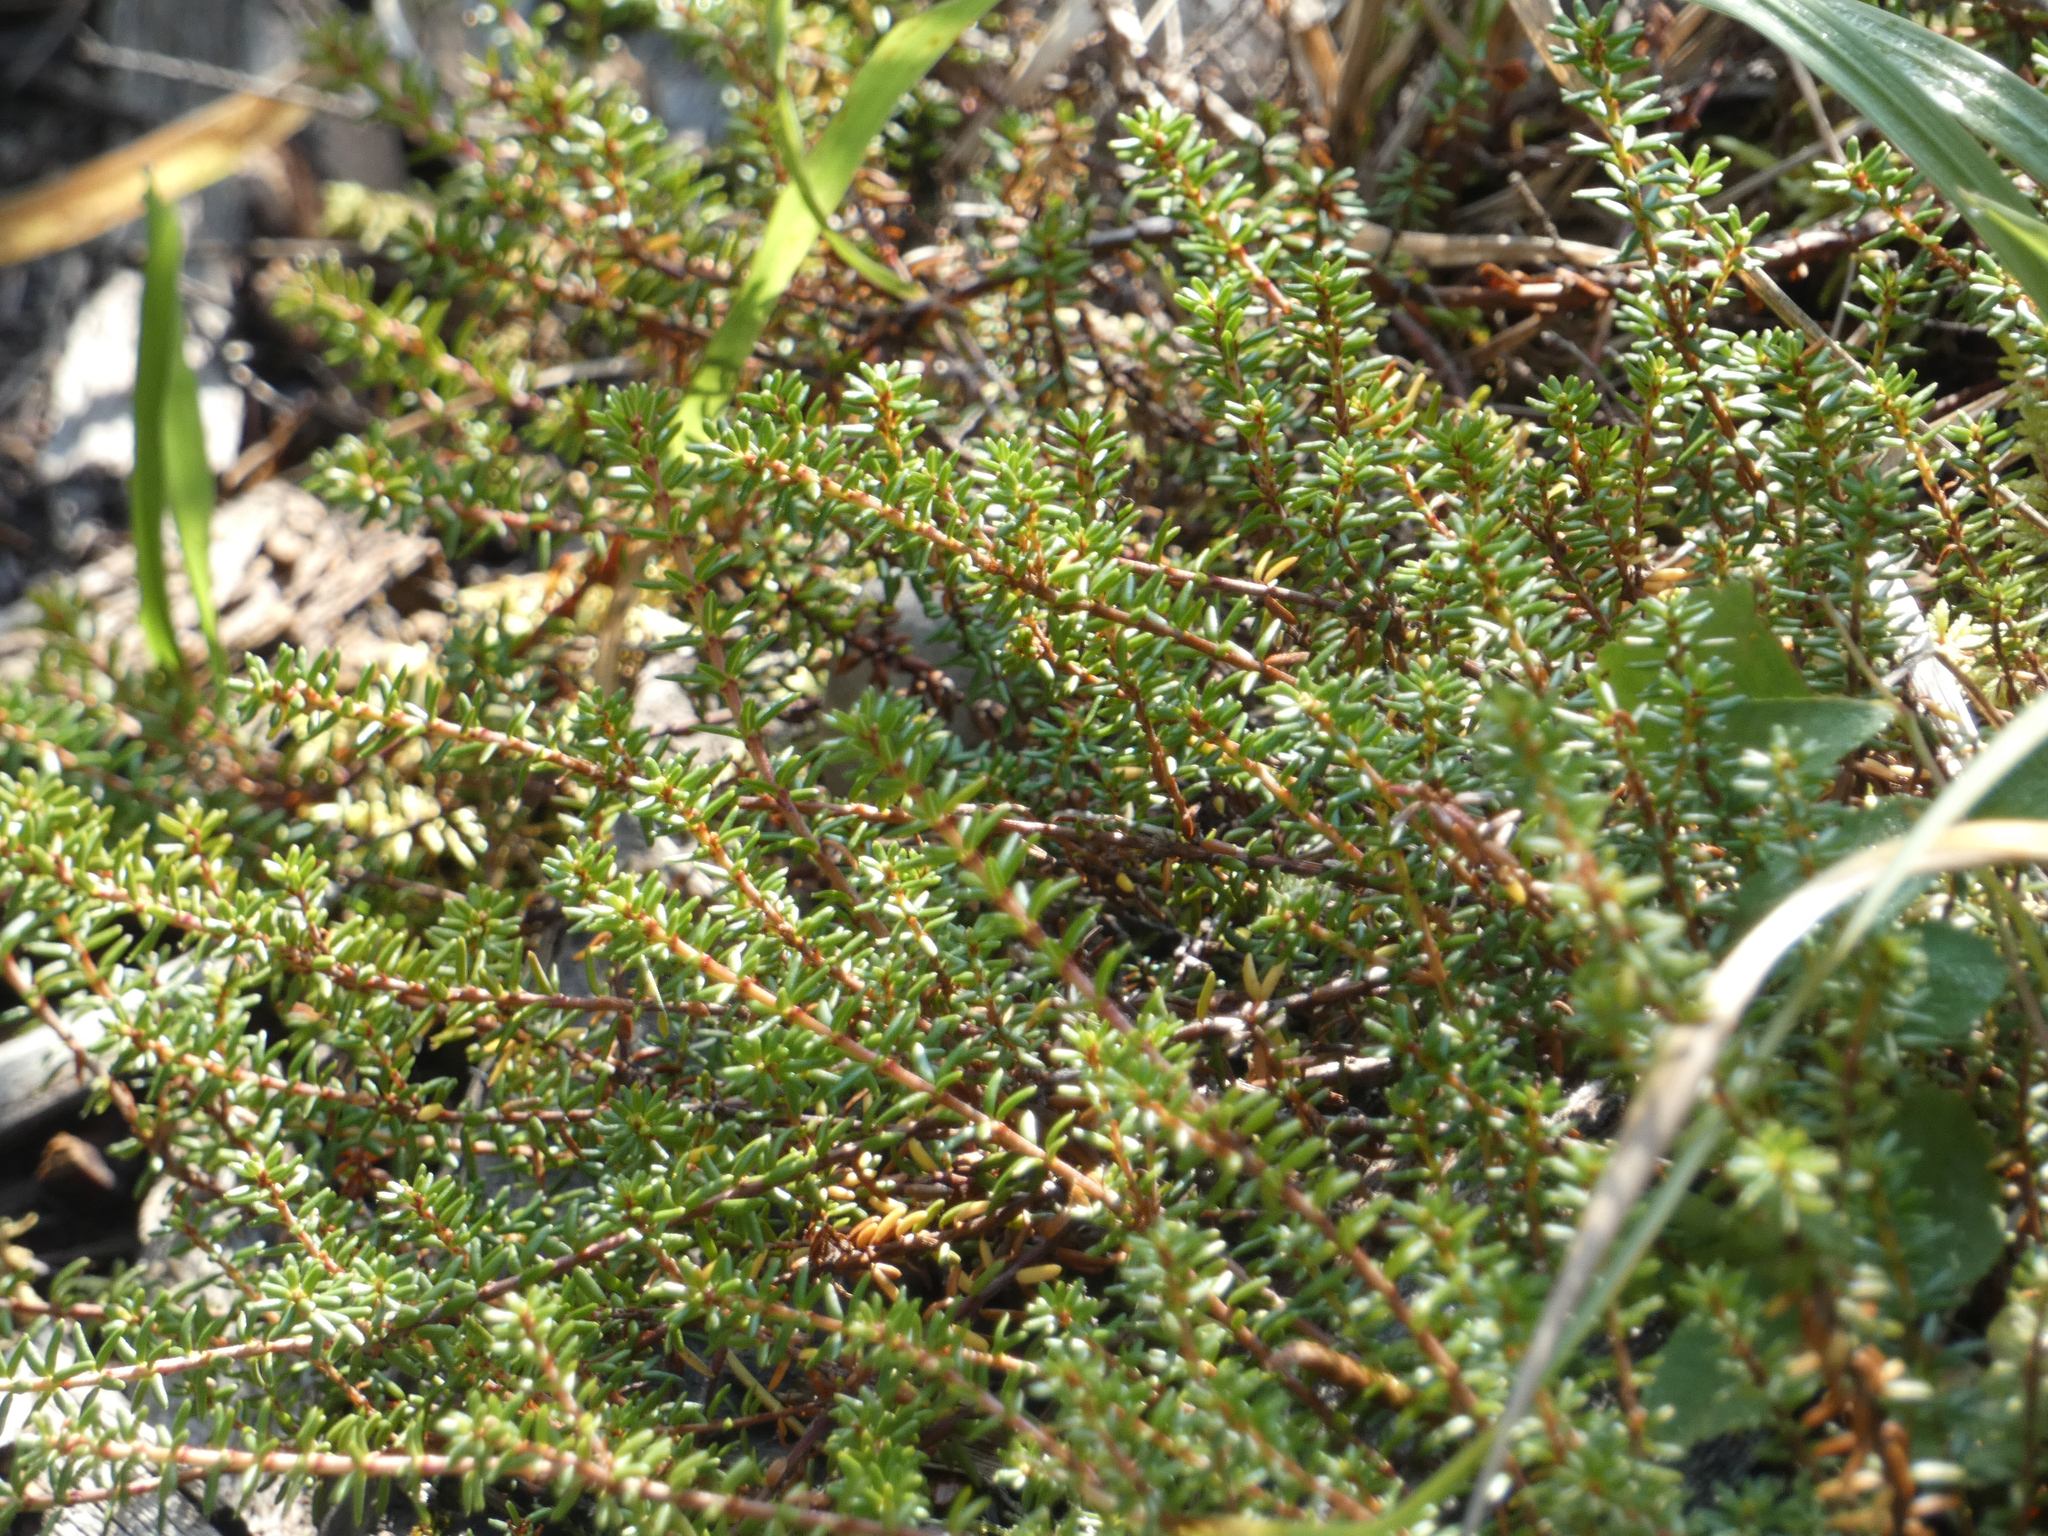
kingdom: Plantae
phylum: Tracheophyta
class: Magnoliopsida
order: Ericales
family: Ericaceae
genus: Empetrum
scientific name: Empetrum nigrum
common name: Black crowberry
